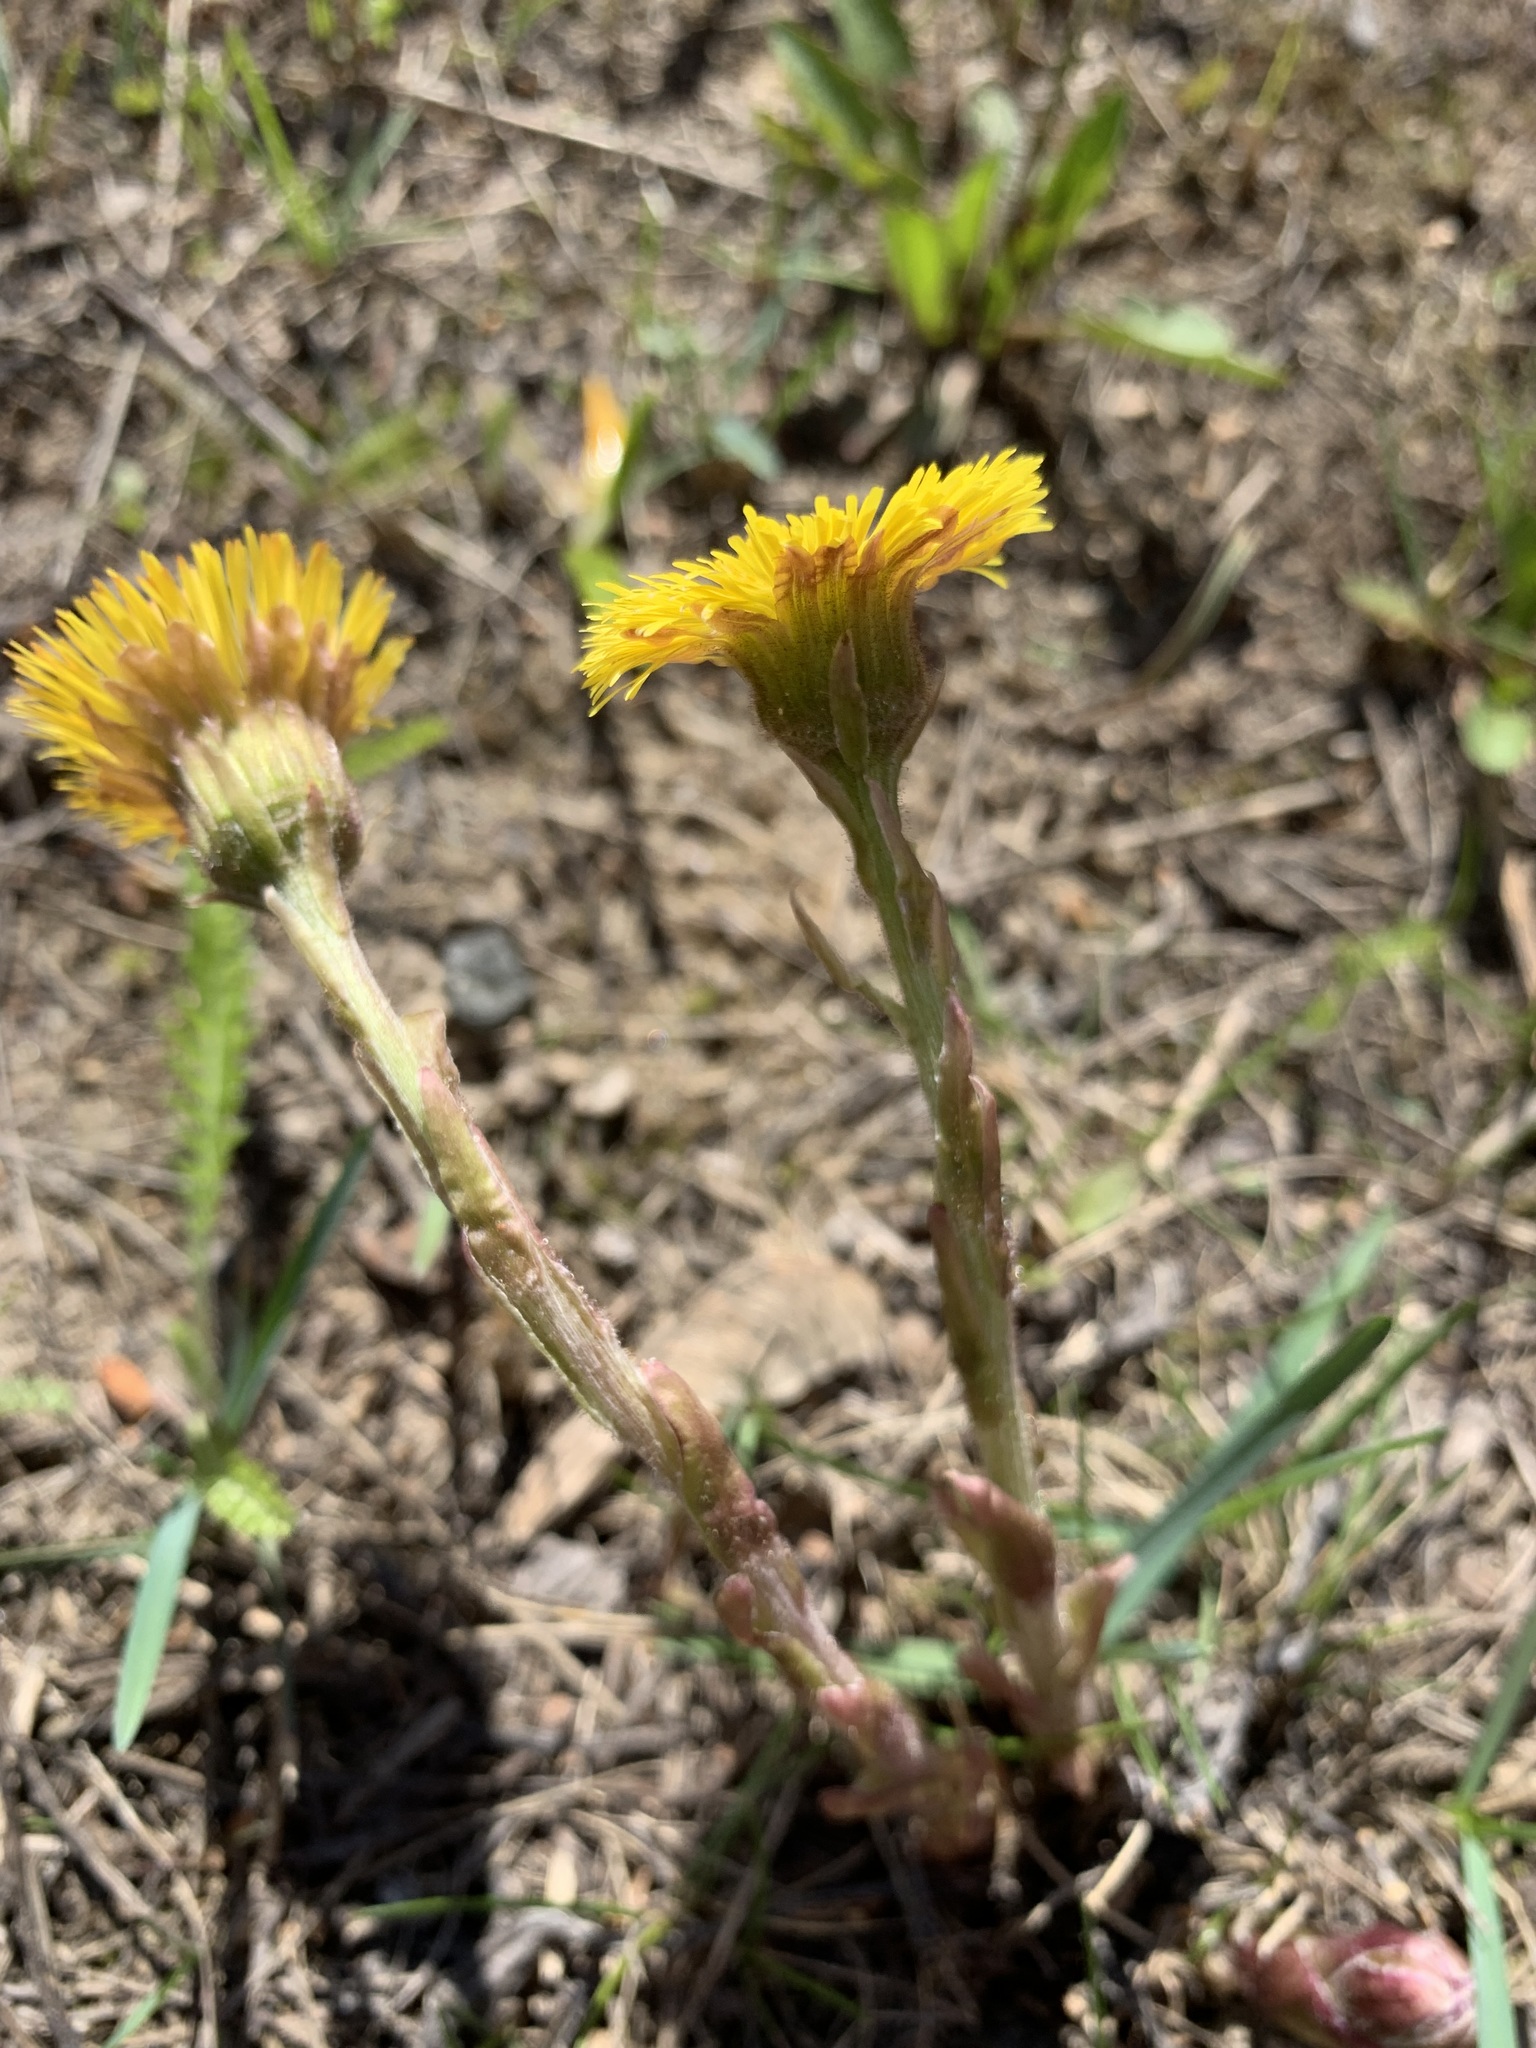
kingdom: Plantae
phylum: Tracheophyta
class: Magnoliopsida
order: Asterales
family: Asteraceae
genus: Tussilago
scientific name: Tussilago farfara
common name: Coltsfoot
